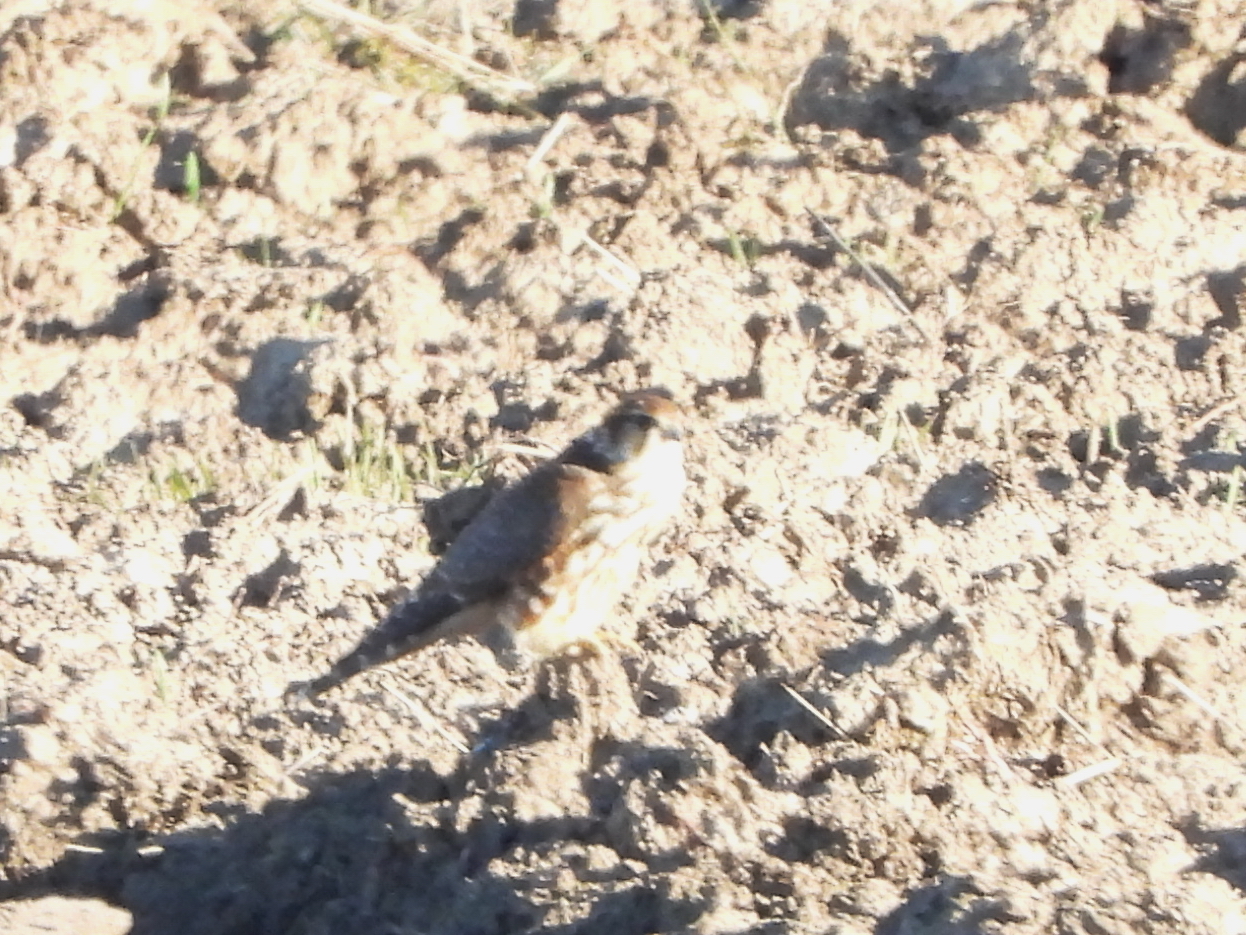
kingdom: Animalia
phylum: Chordata
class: Aves
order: Falconiformes
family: Falconidae
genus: Falco
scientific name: Falco columbarius
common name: Merlin
